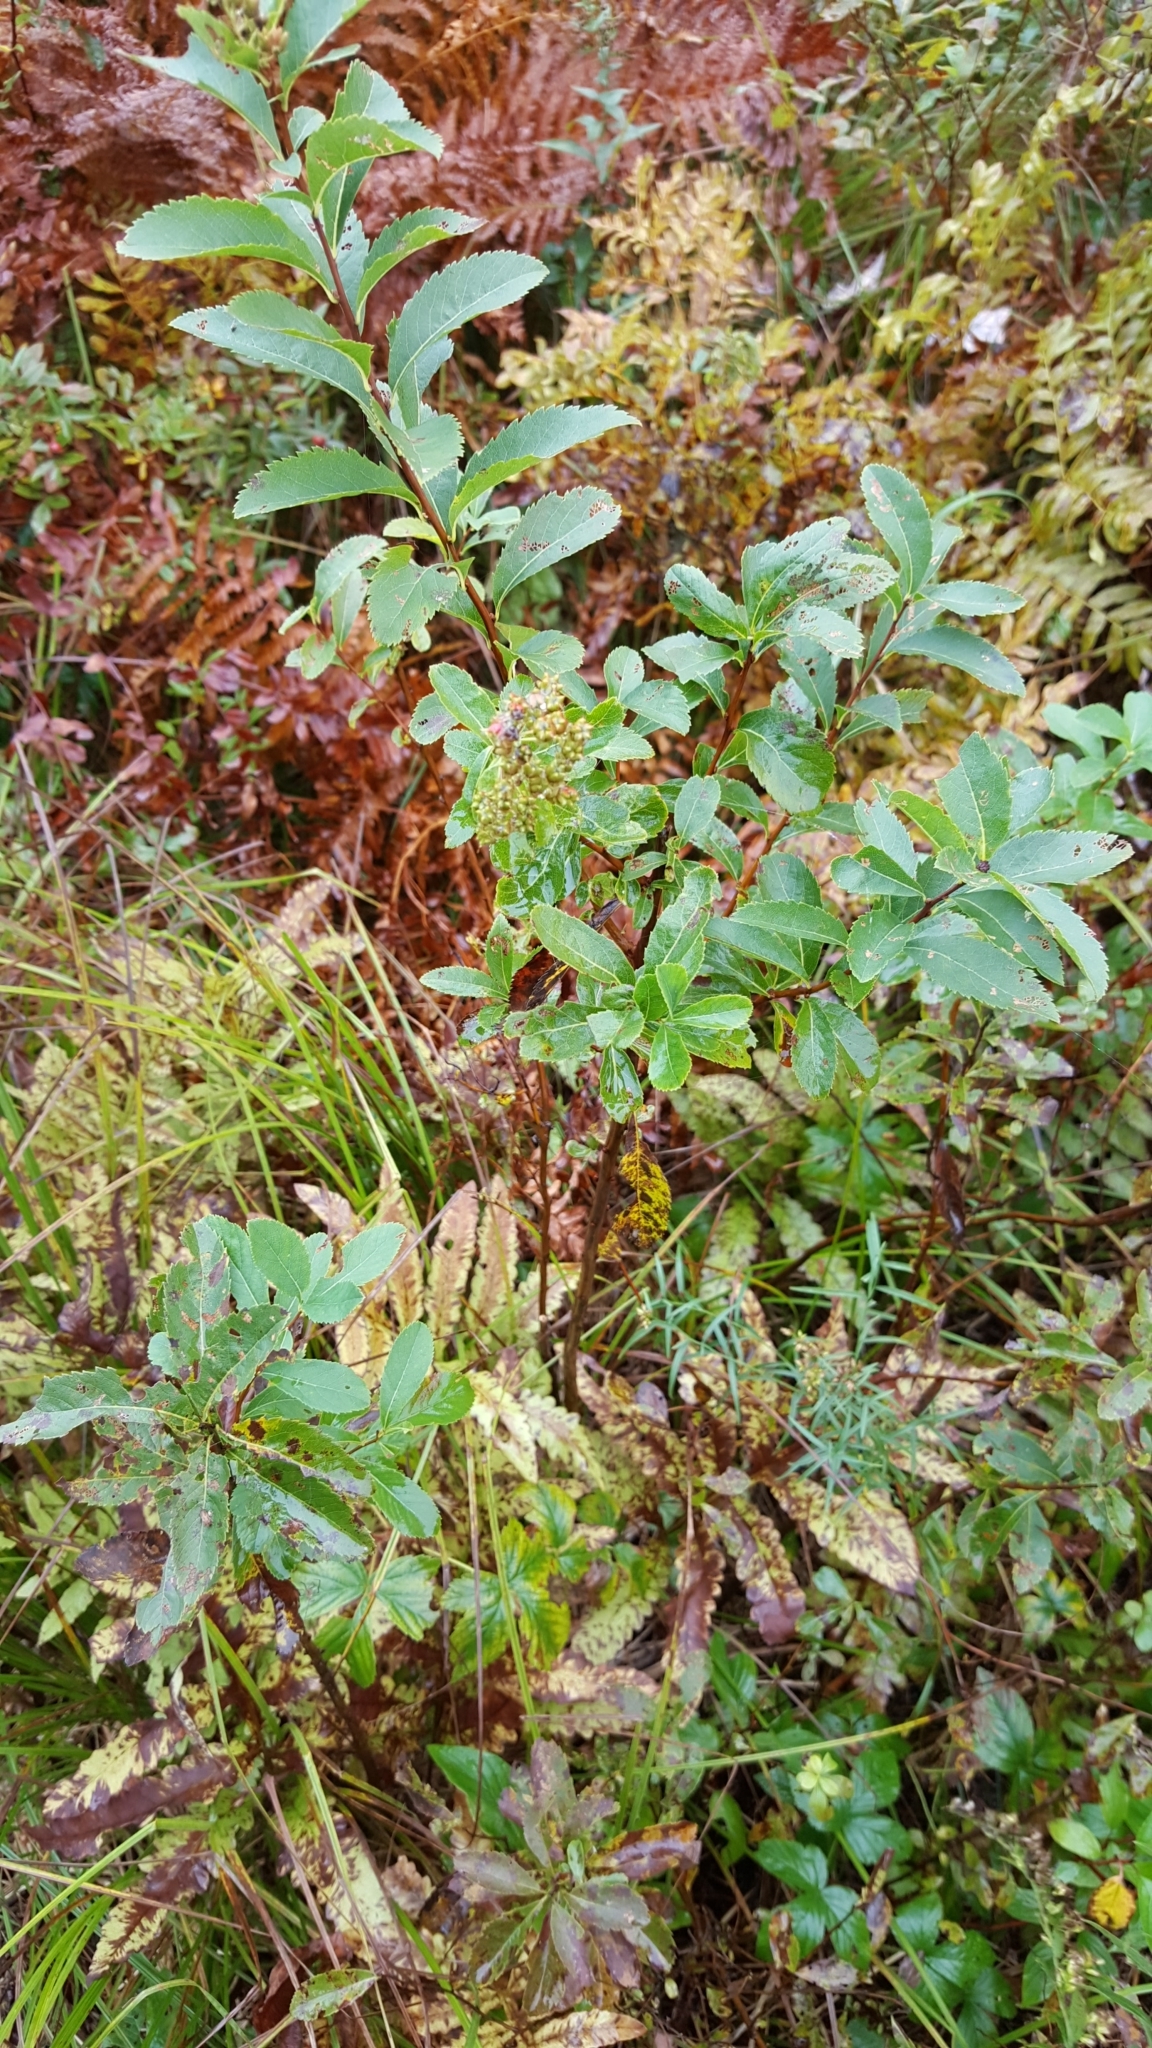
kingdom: Plantae
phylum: Tracheophyta
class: Magnoliopsida
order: Rosales
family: Rosaceae
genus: Spiraea
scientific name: Spiraea alba
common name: Pale bridewort
